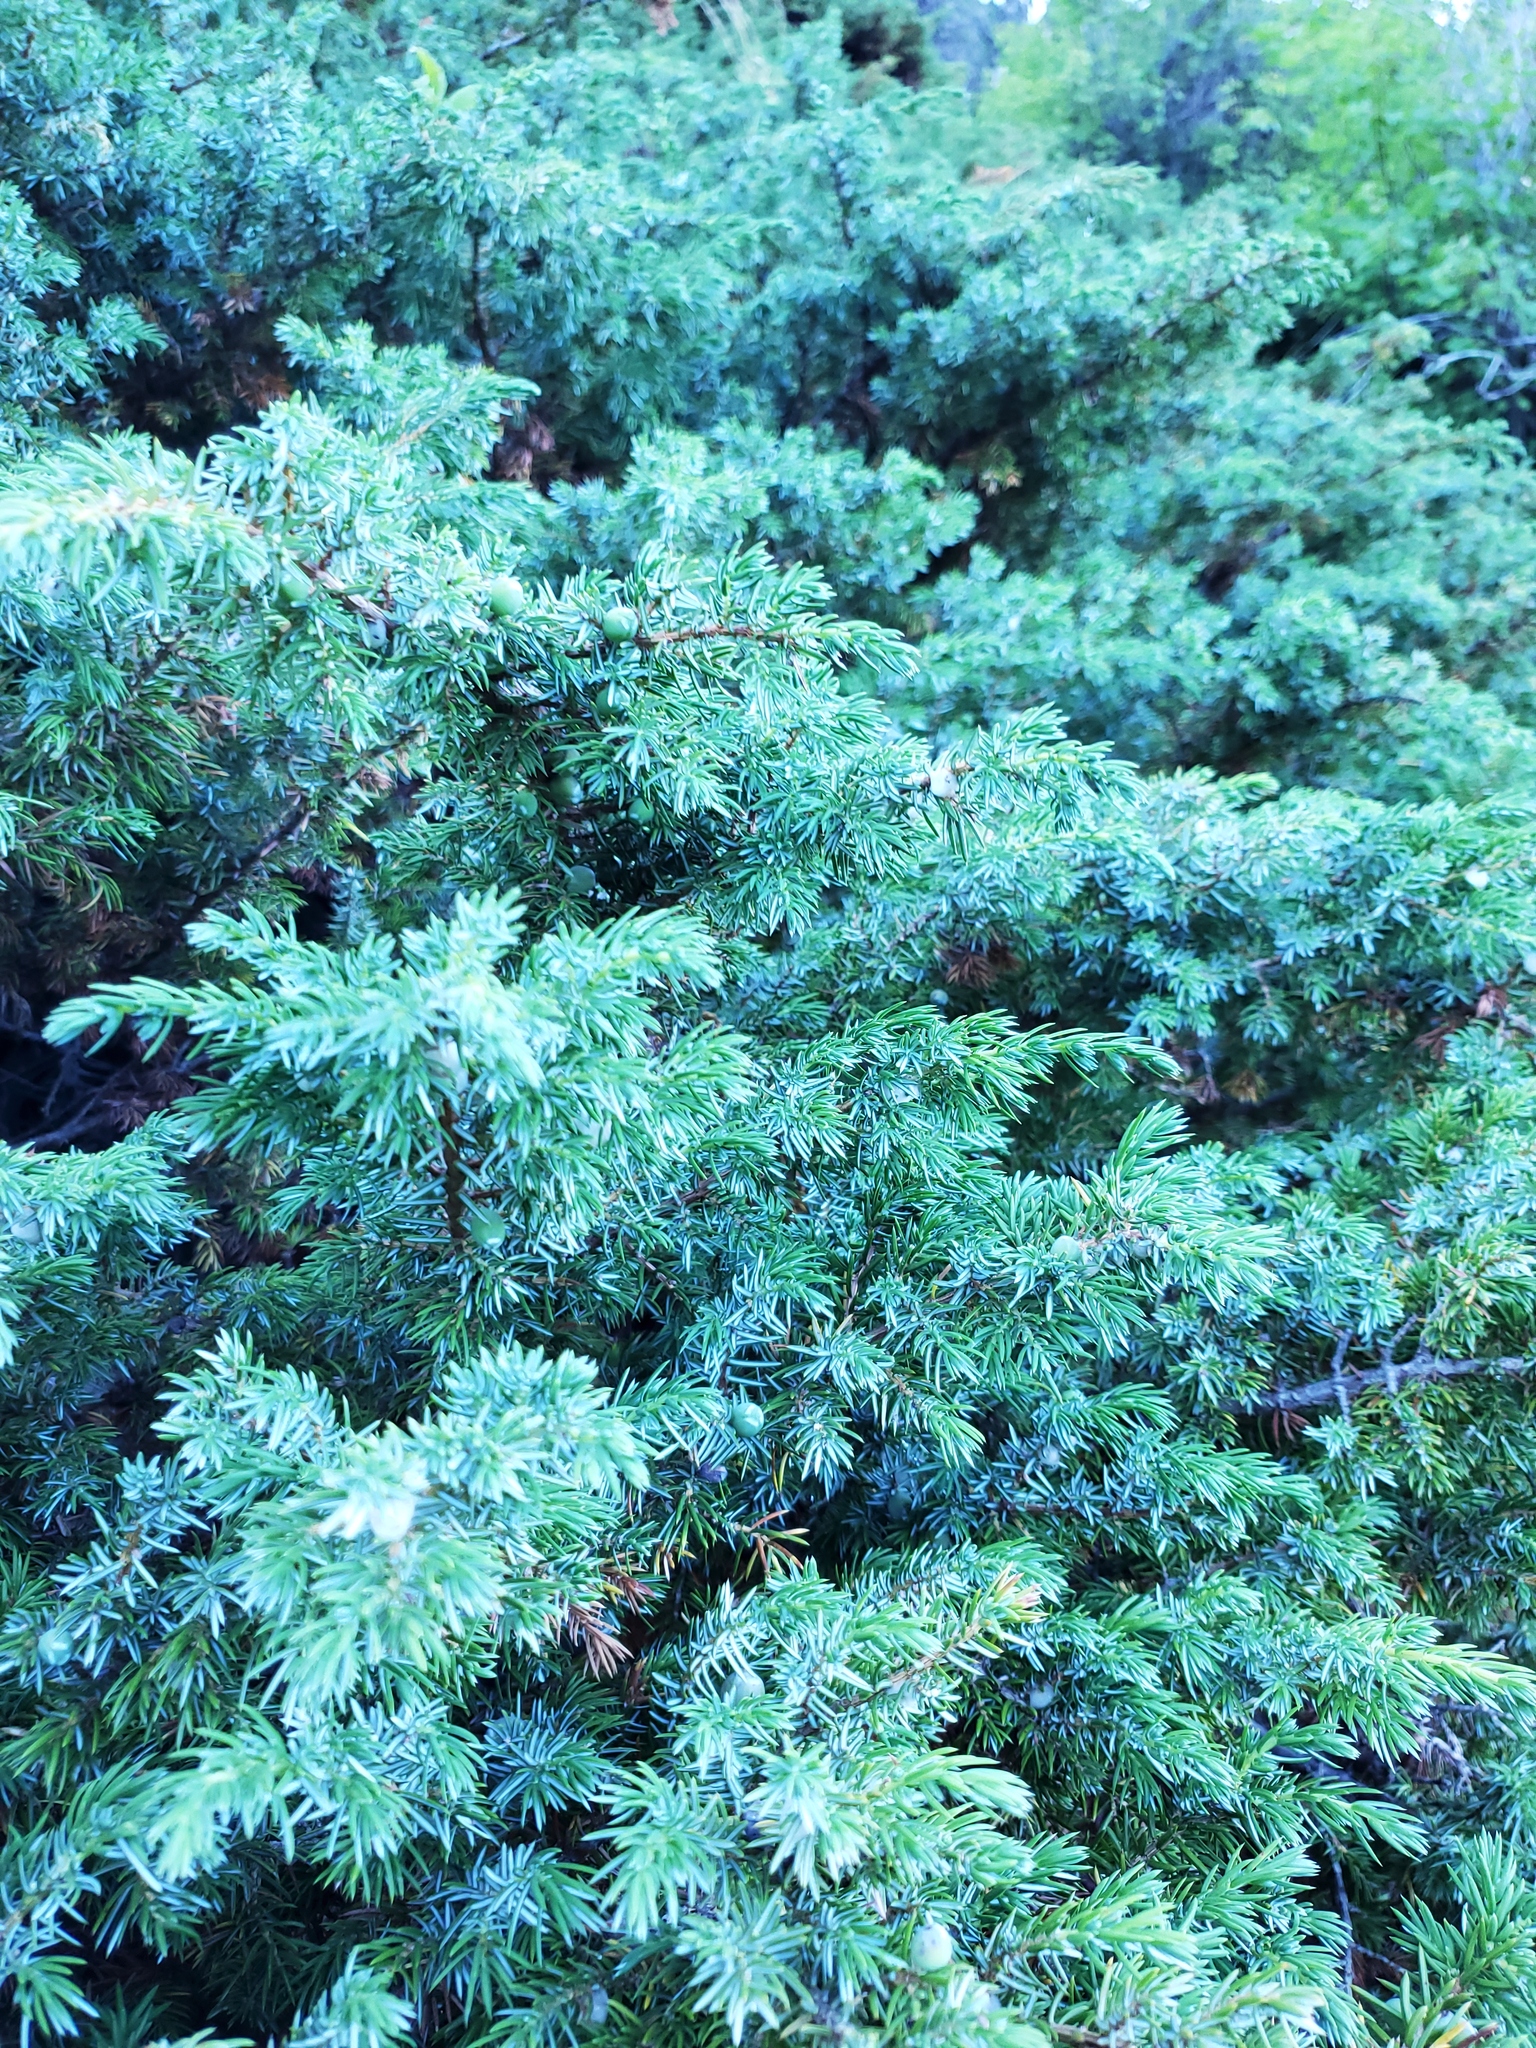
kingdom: Plantae
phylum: Tracheophyta
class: Pinopsida
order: Pinales
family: Cupressaceae
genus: Juniperus
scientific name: Juniperus communis
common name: Common juniper
